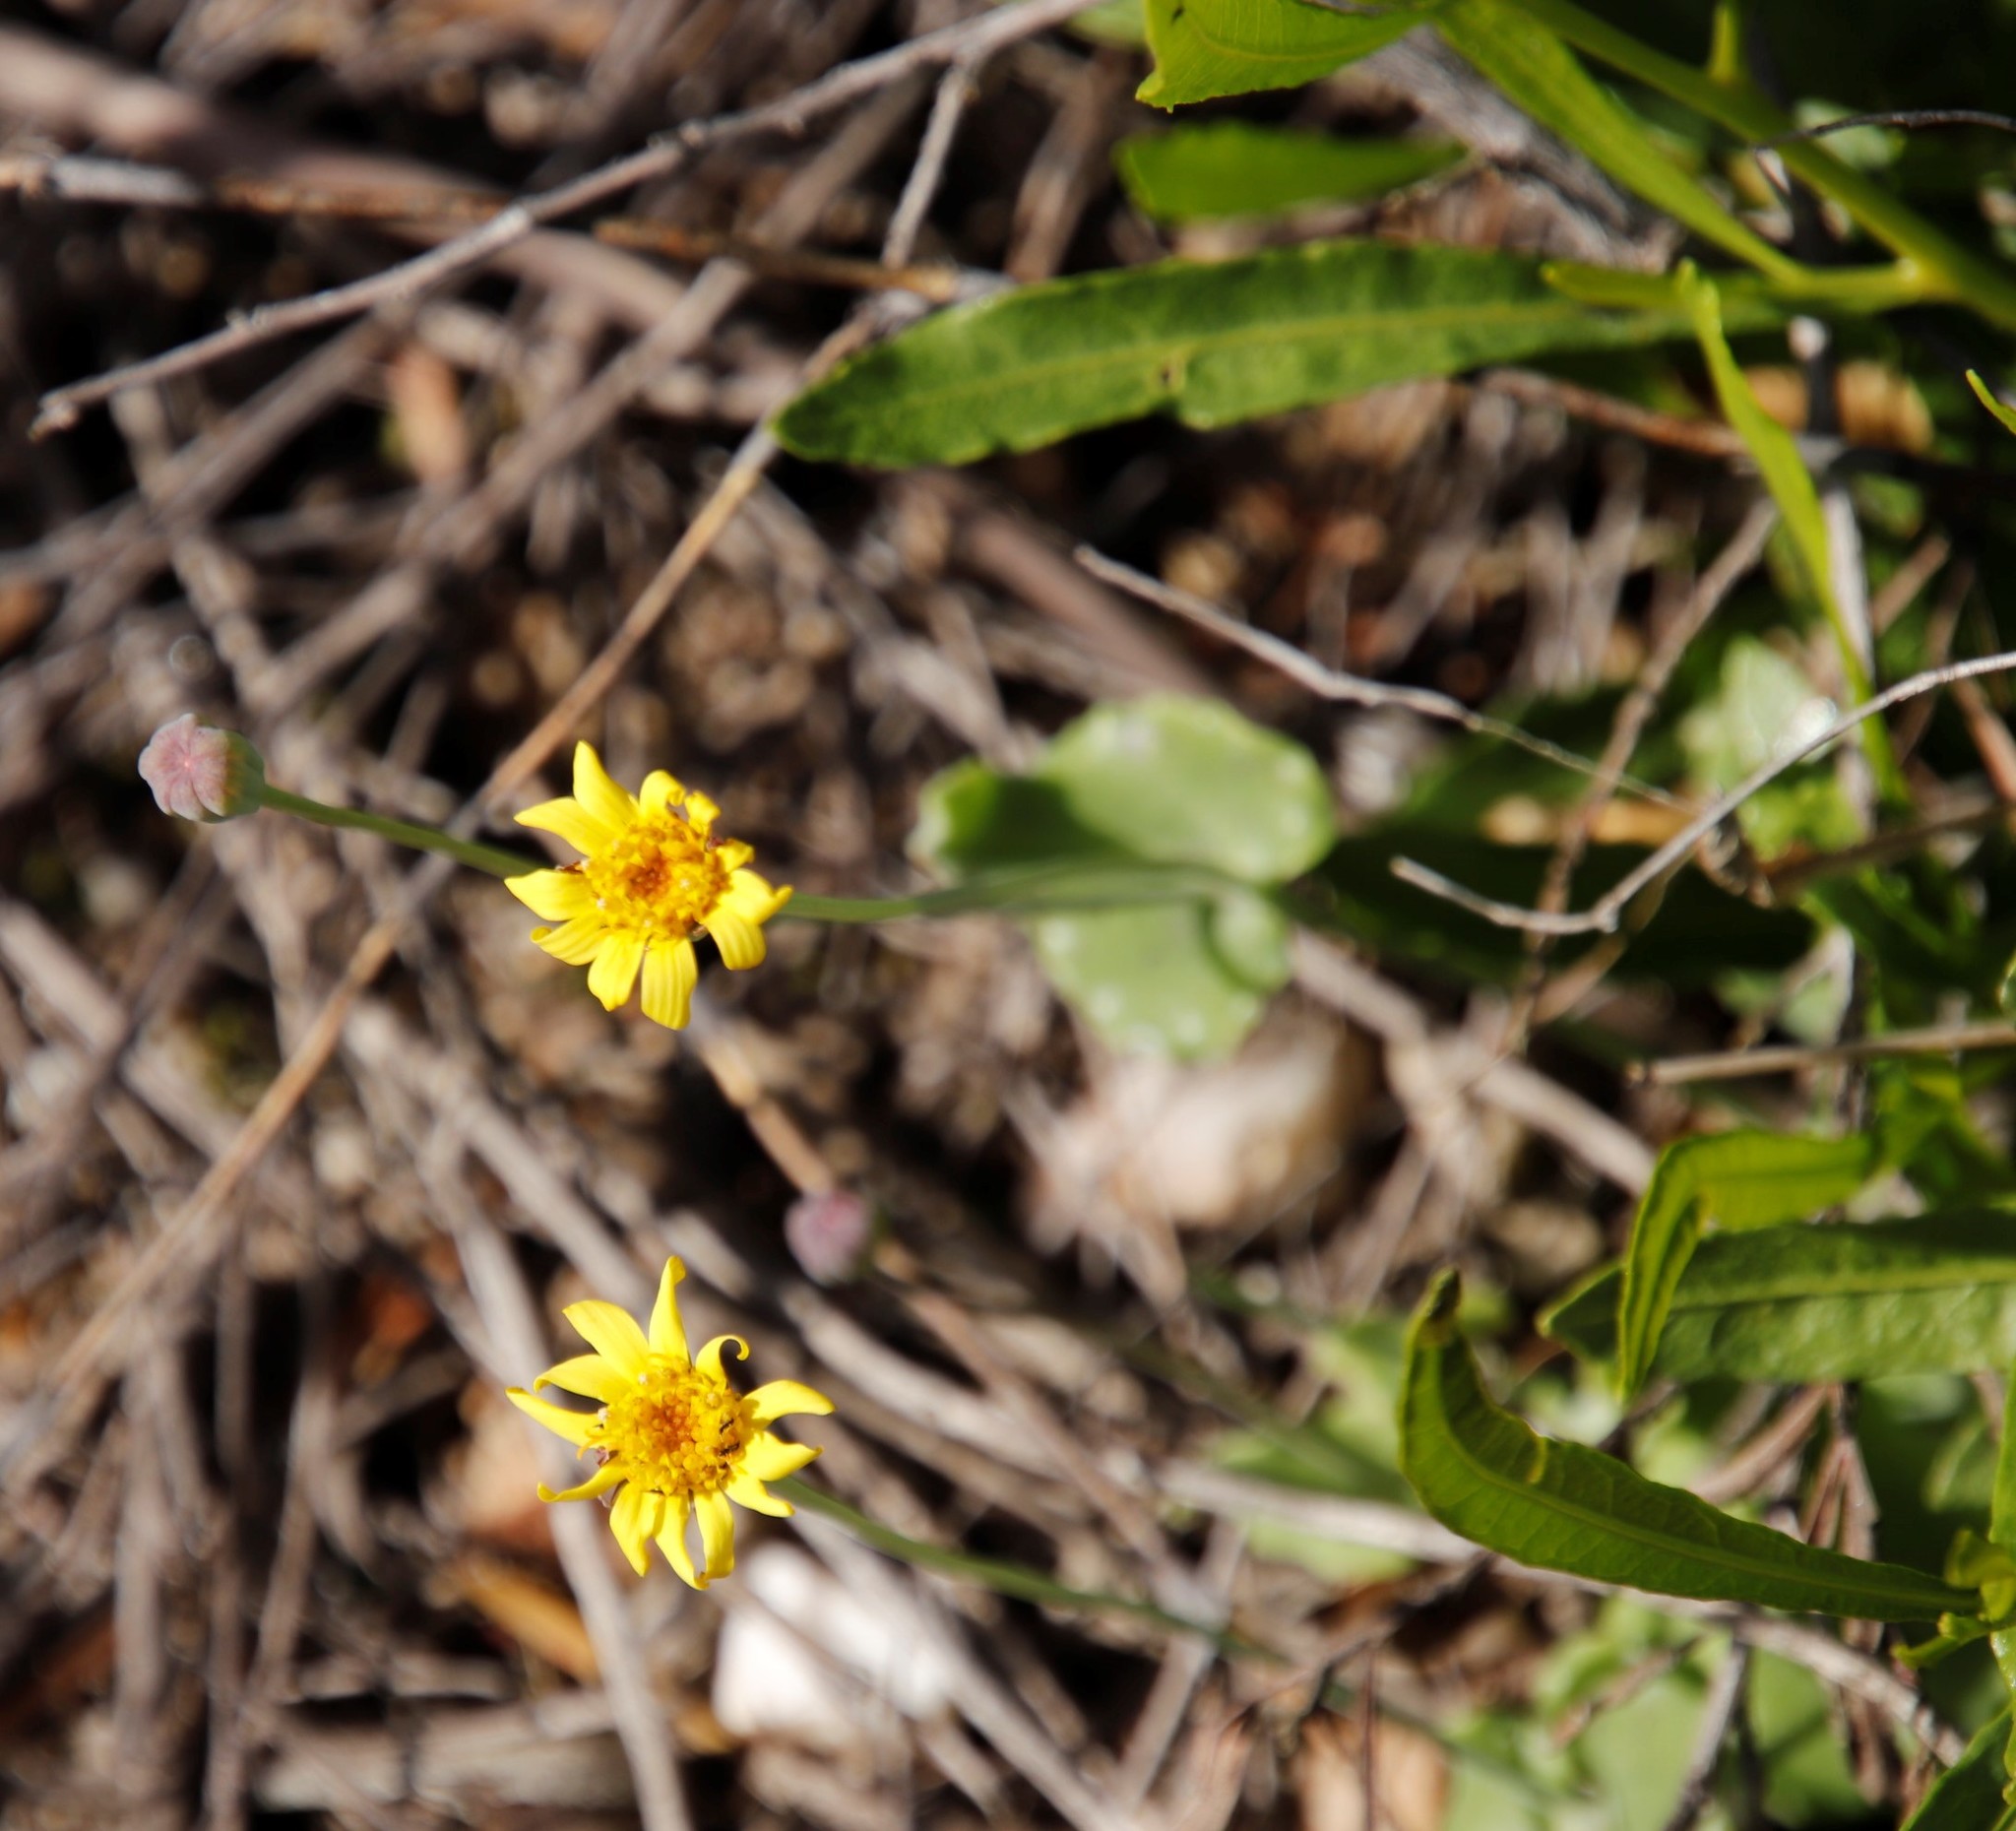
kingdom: Plantae
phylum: Tracheophyta
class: Magnoliopsida
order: Asterales
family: Asteraceae
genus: Othonna
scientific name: Othonna perfoliata
